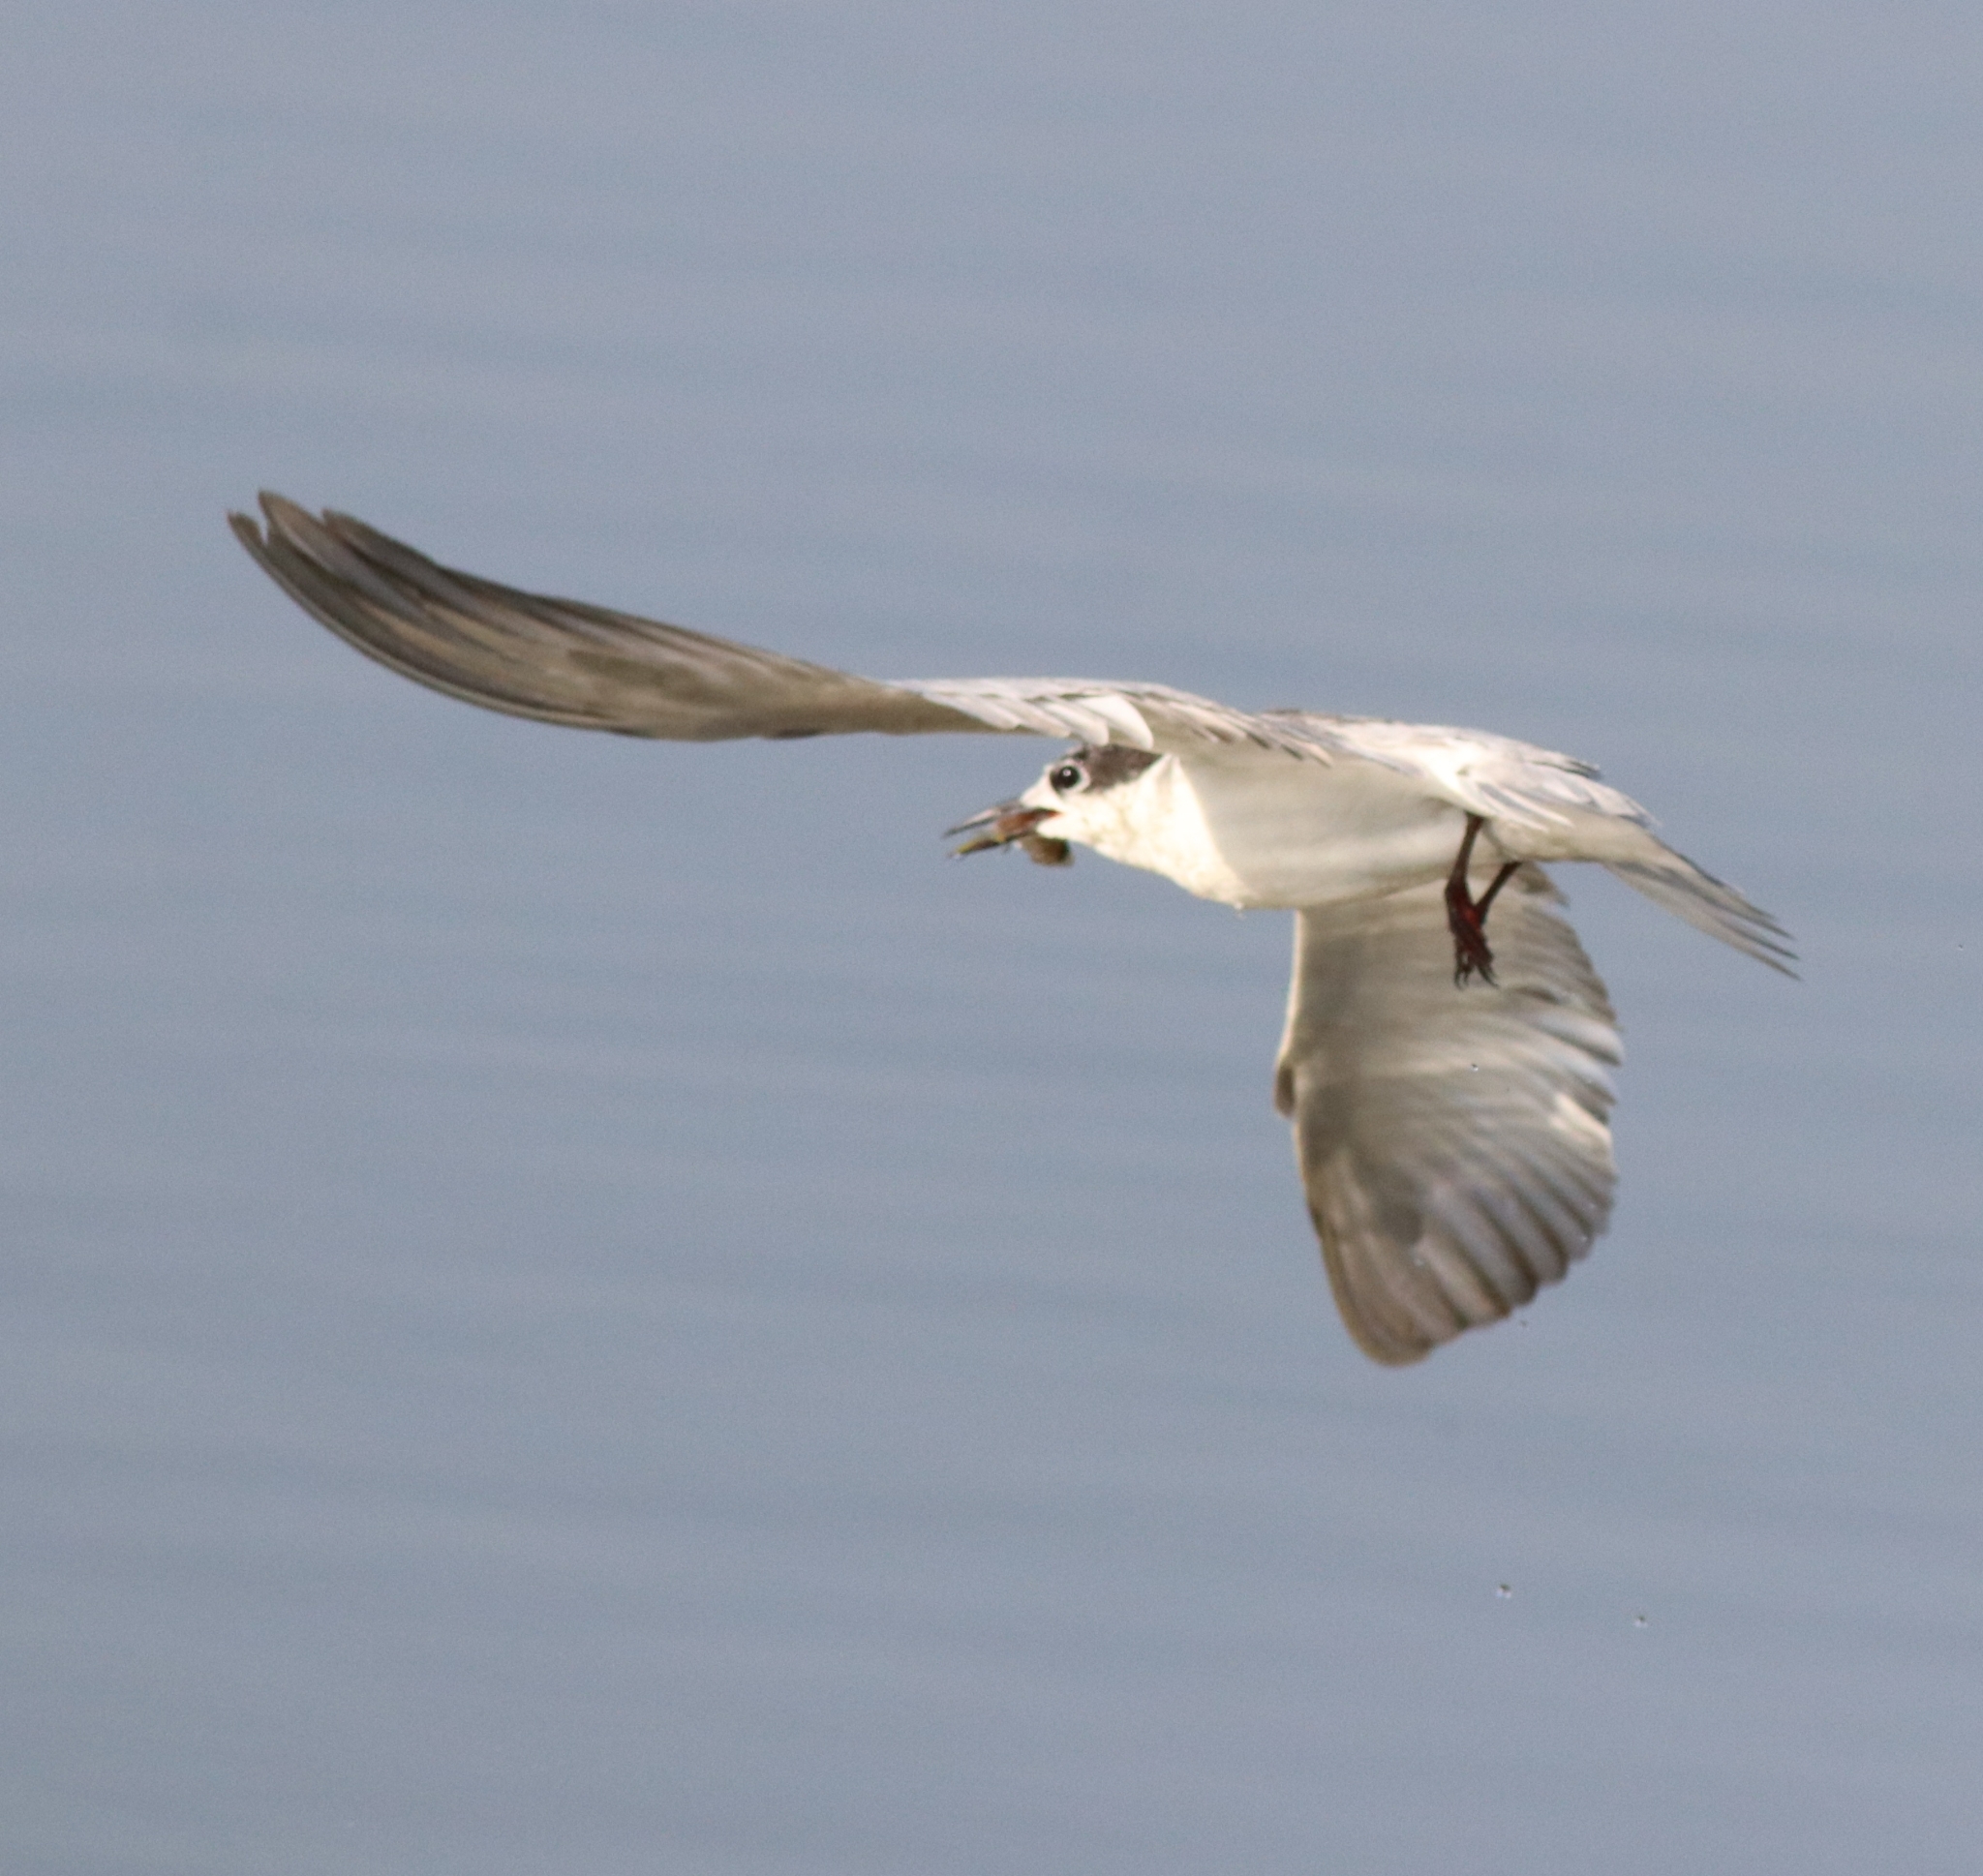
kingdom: Animalia
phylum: Chordata
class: Aves
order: Charadriiformes
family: Laridae
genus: Chlidonias
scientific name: Chlidonias hybrida
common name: Whiskered tern
